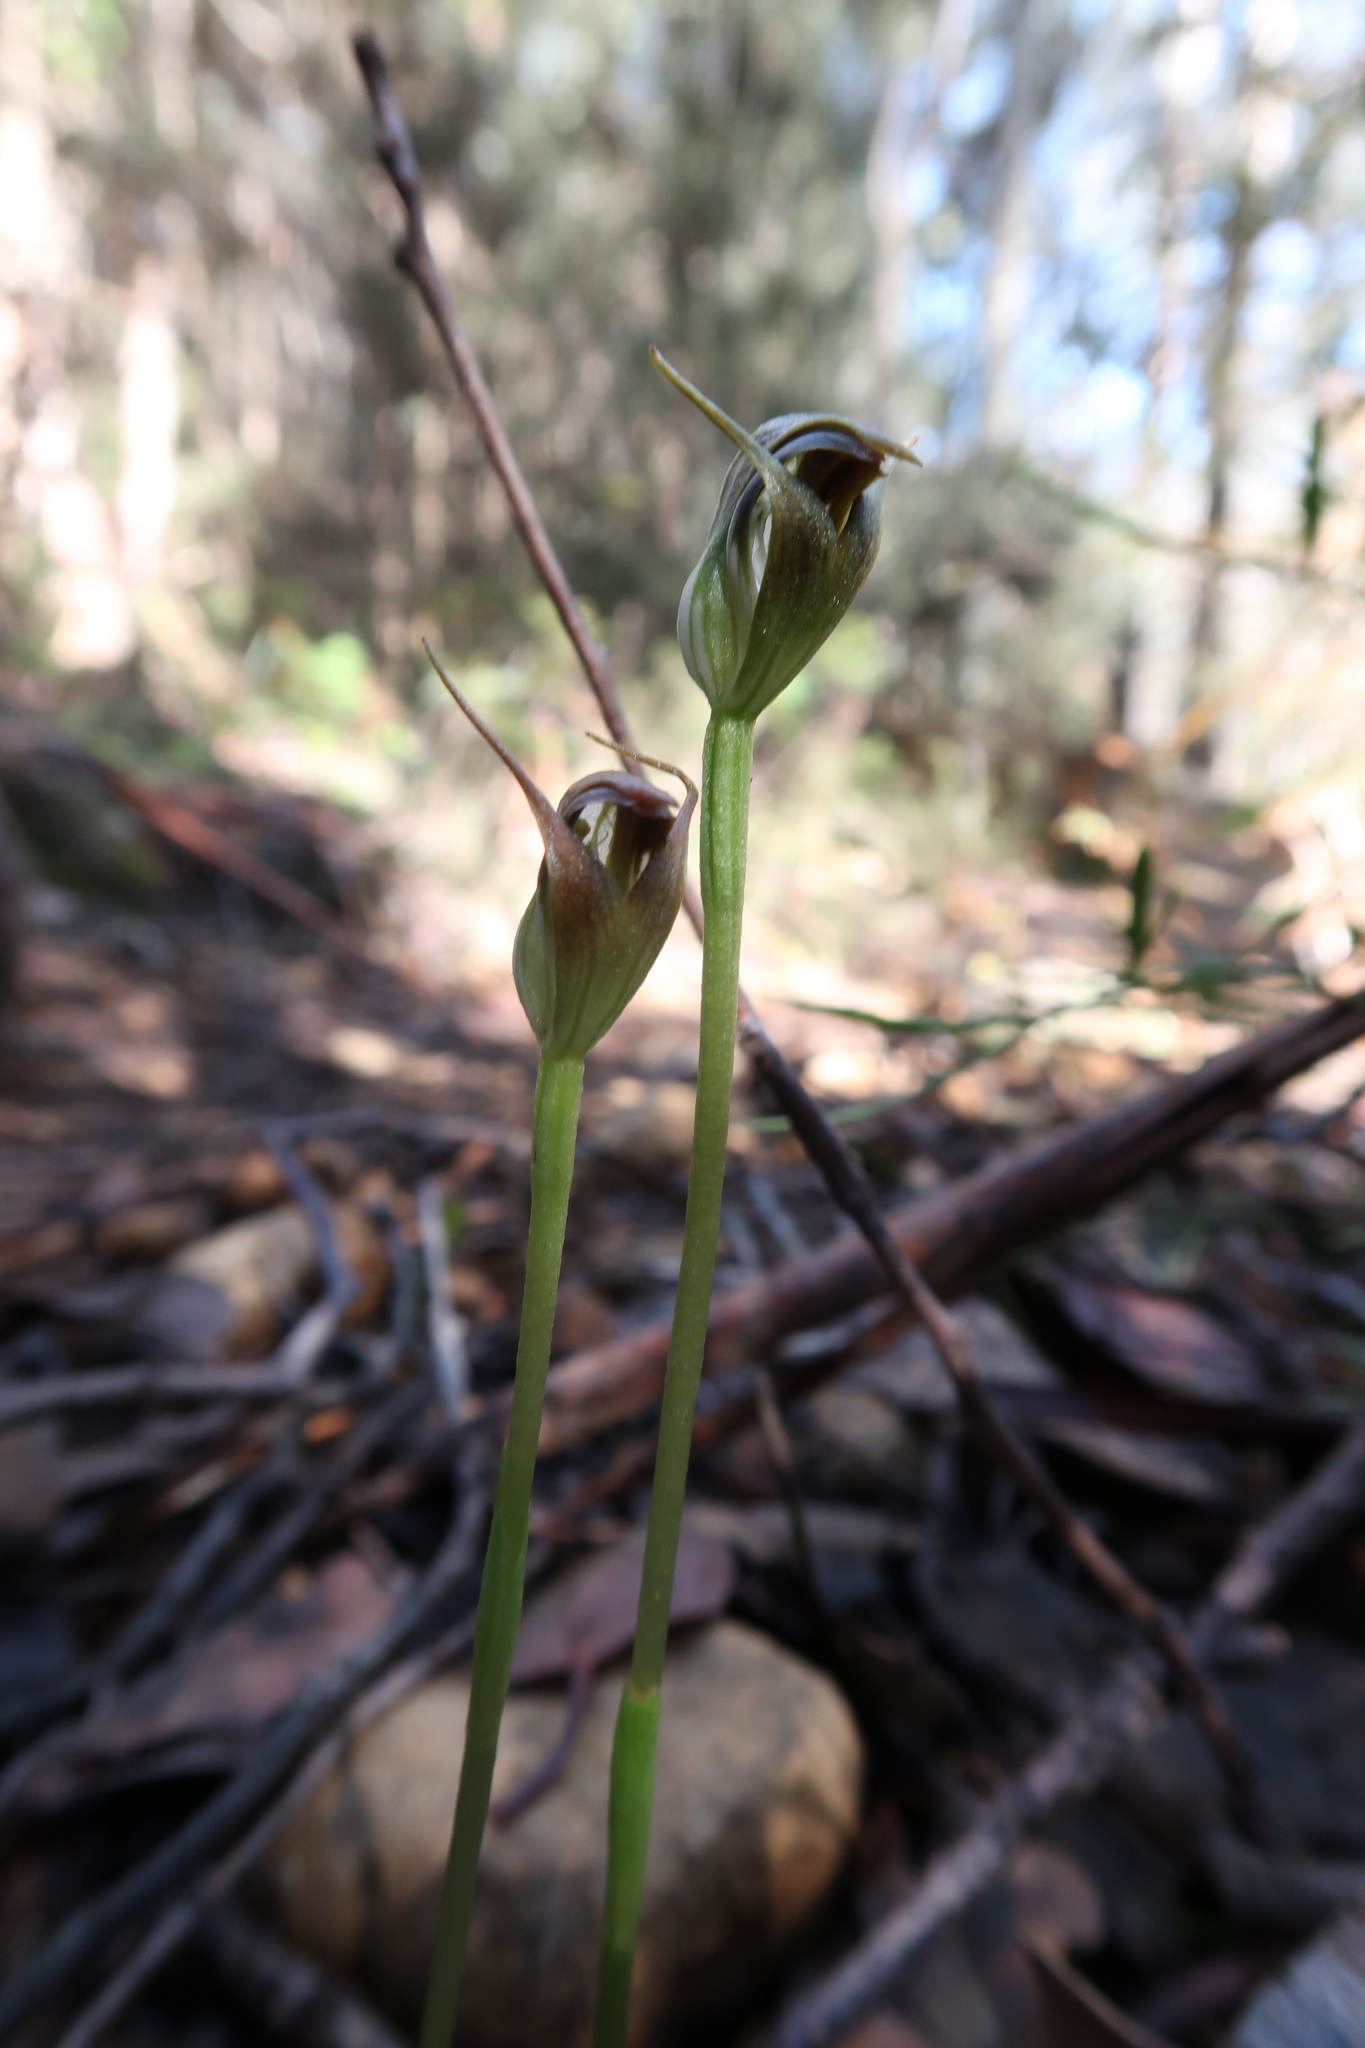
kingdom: Plantae
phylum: Tracheophyta
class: Liliopsida
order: Asparagales
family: Orchidaceae
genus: Pterostylis
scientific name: Pterostylis pedunculata
